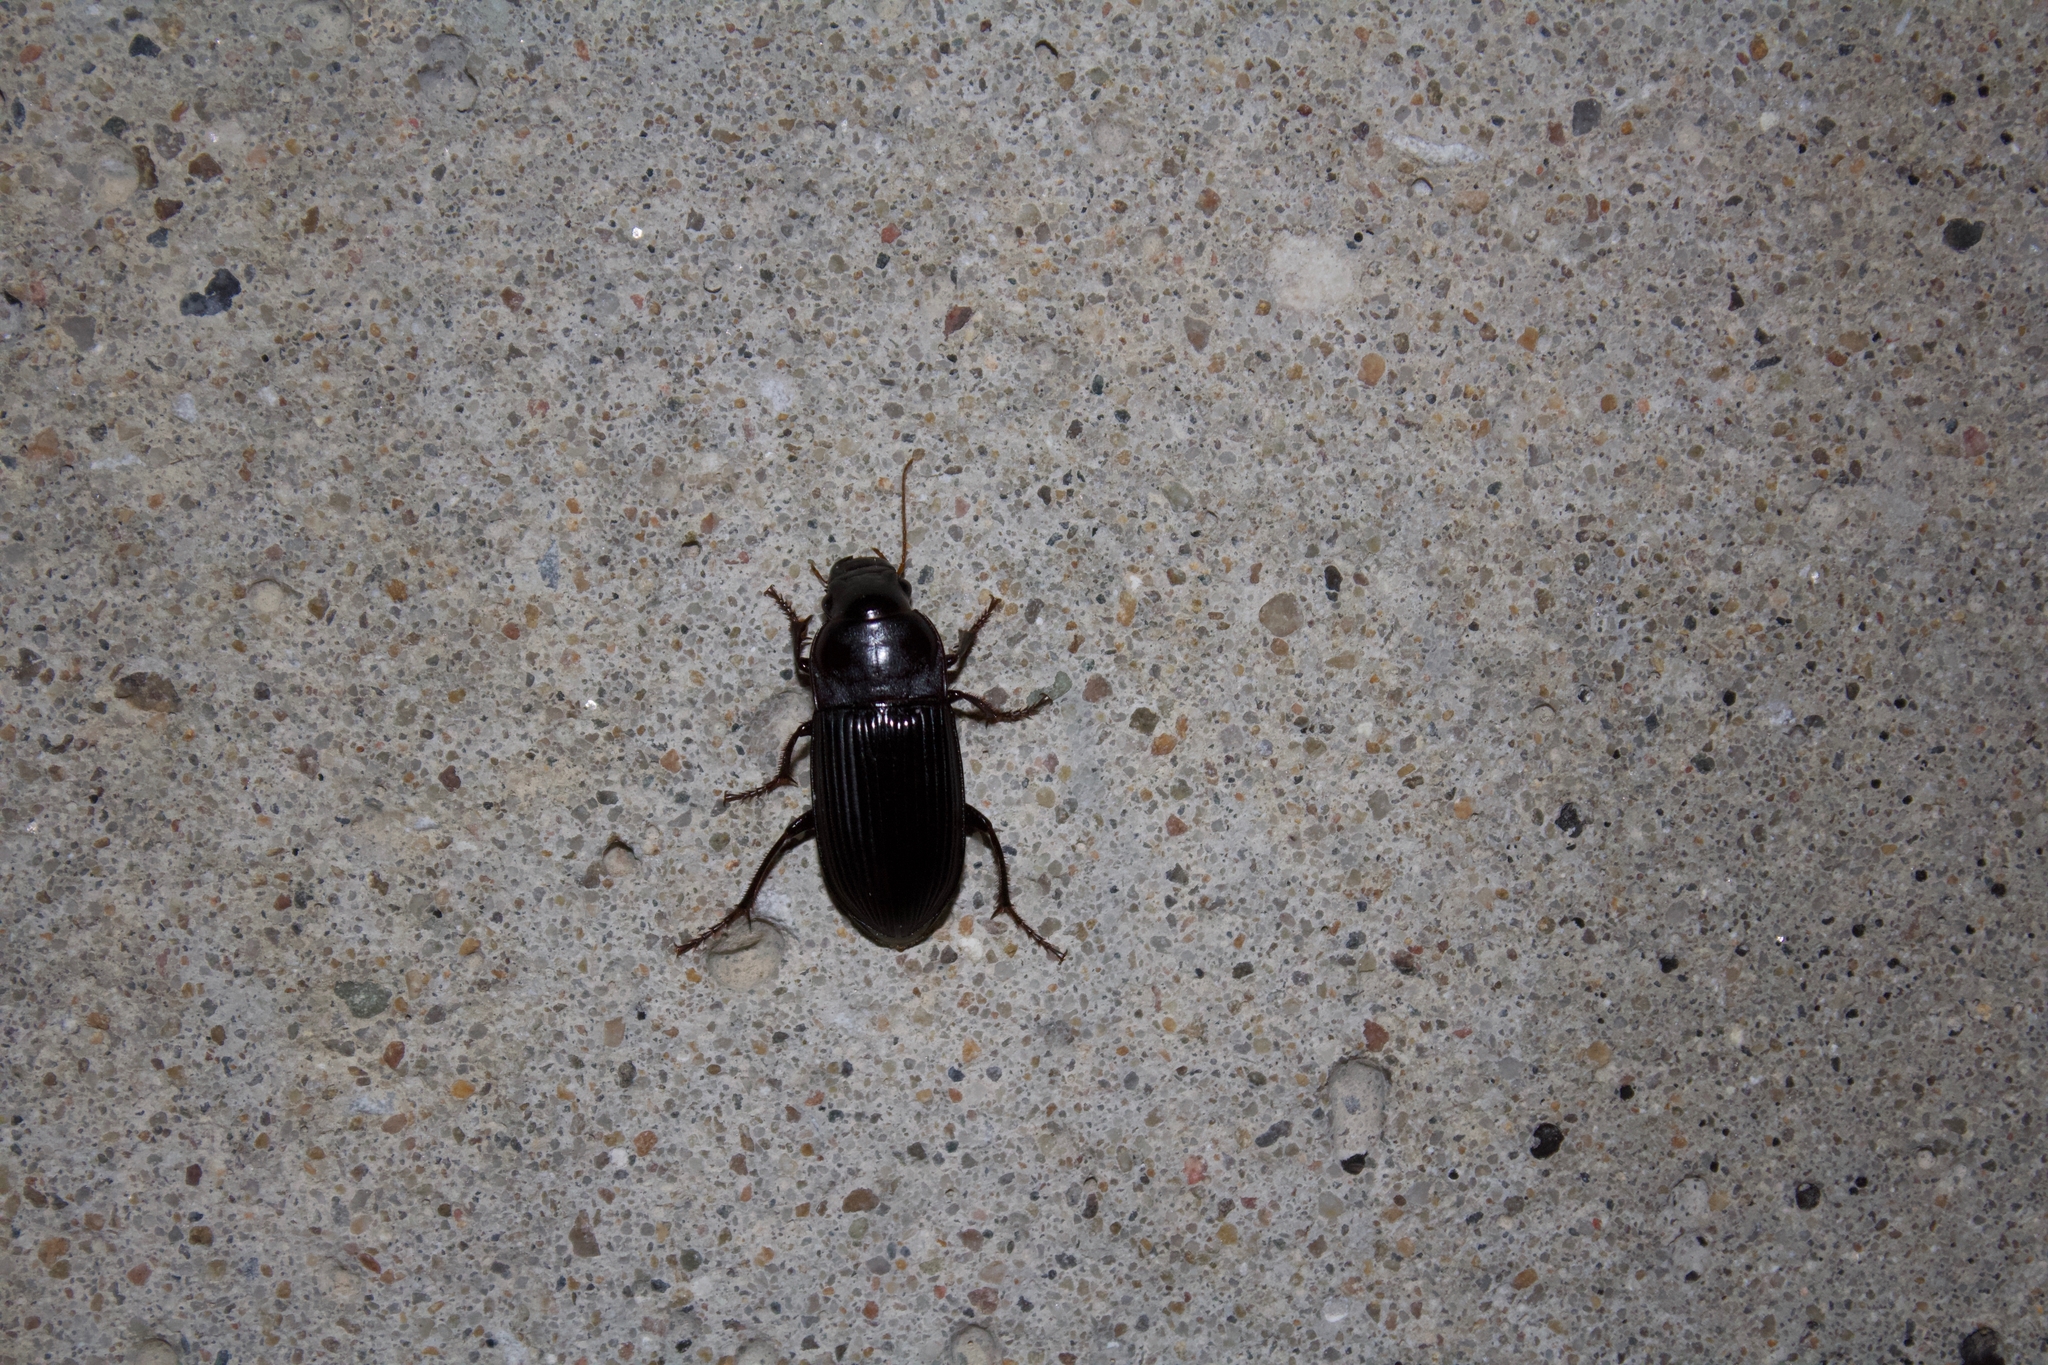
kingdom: Animalia
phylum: Arthropoda
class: Insecta
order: Coleoptera
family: Carabidae
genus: Harpalus
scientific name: Harpalus caliginosus
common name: Murky ground beetle
